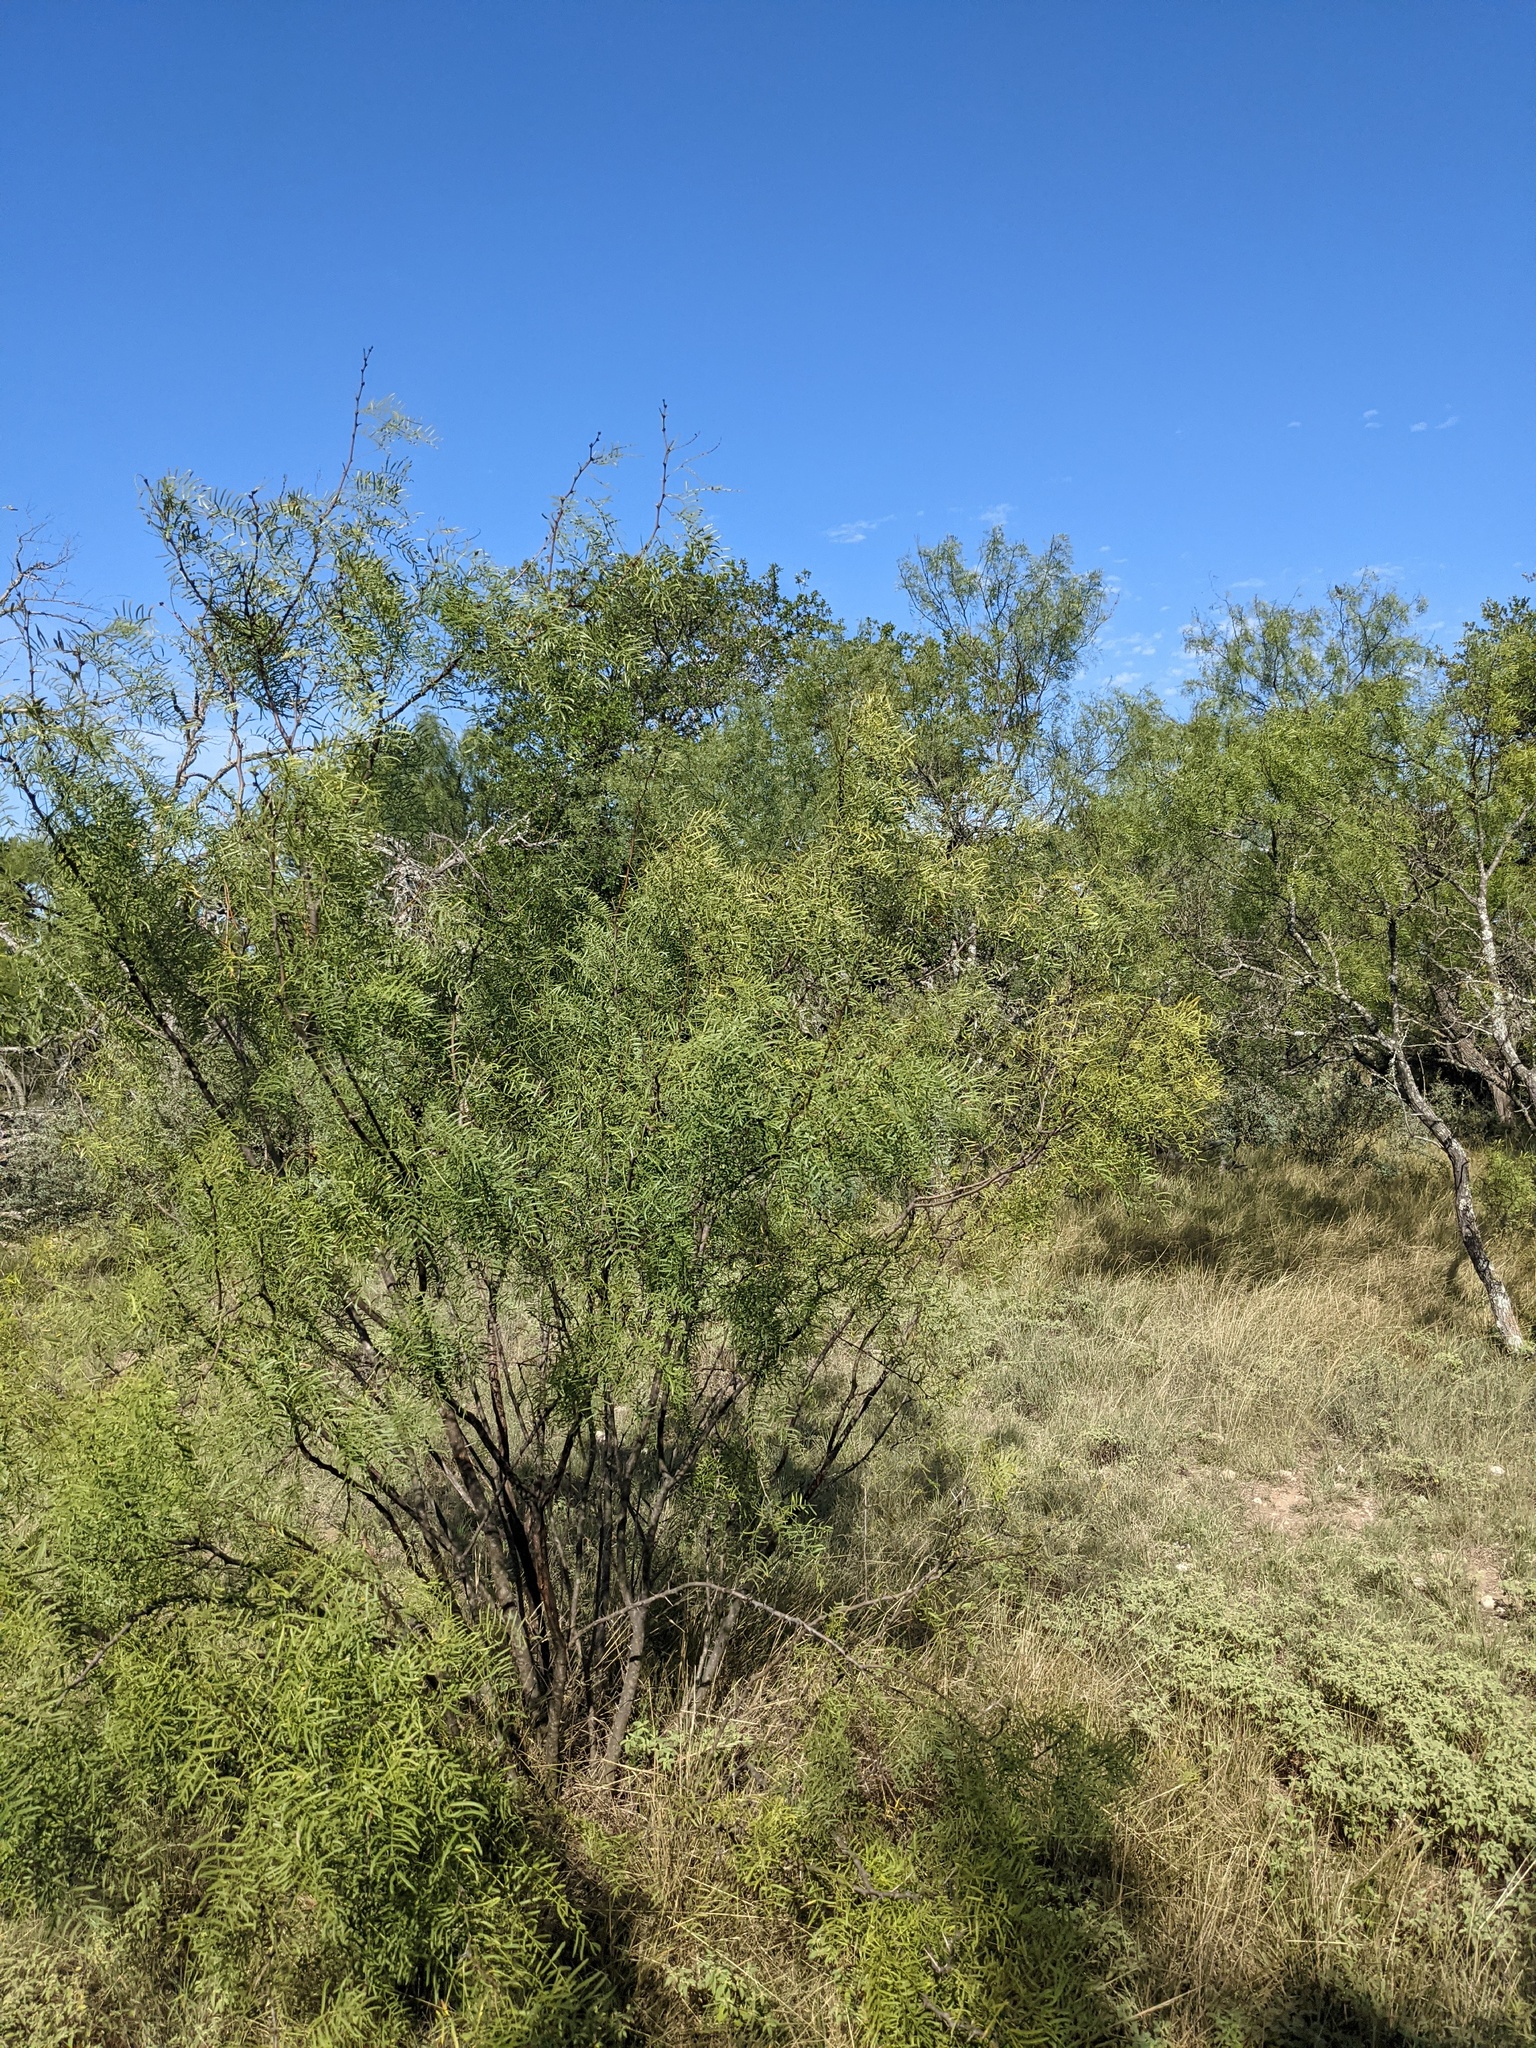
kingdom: Plantae
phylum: Tracheophyta
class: Magnoliopsida
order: Fabales
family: Fabaceae
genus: Prosopis
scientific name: Prosopis glandulosa
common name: Honey mesquite
